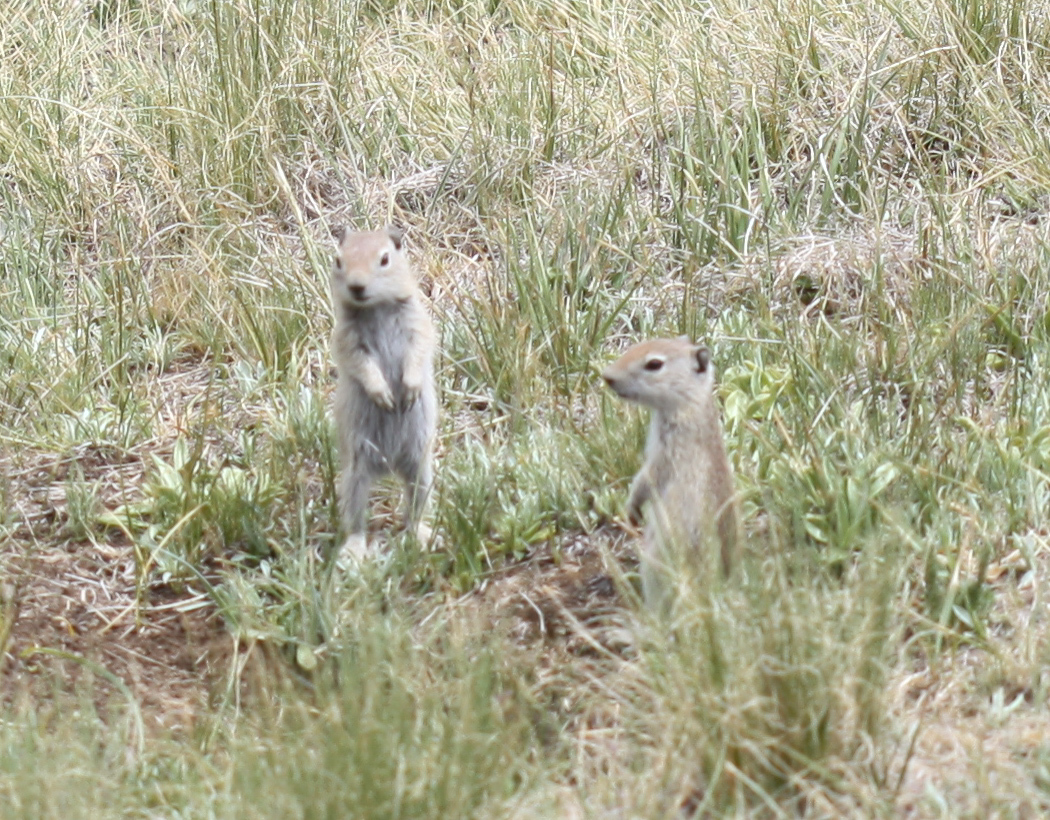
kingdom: Animalia
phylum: Chordata
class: Mammalia
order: Rodentia
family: Sciuridae
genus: Urocitellus
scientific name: Urocitellus beldingi
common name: Belding's ground squirrel
